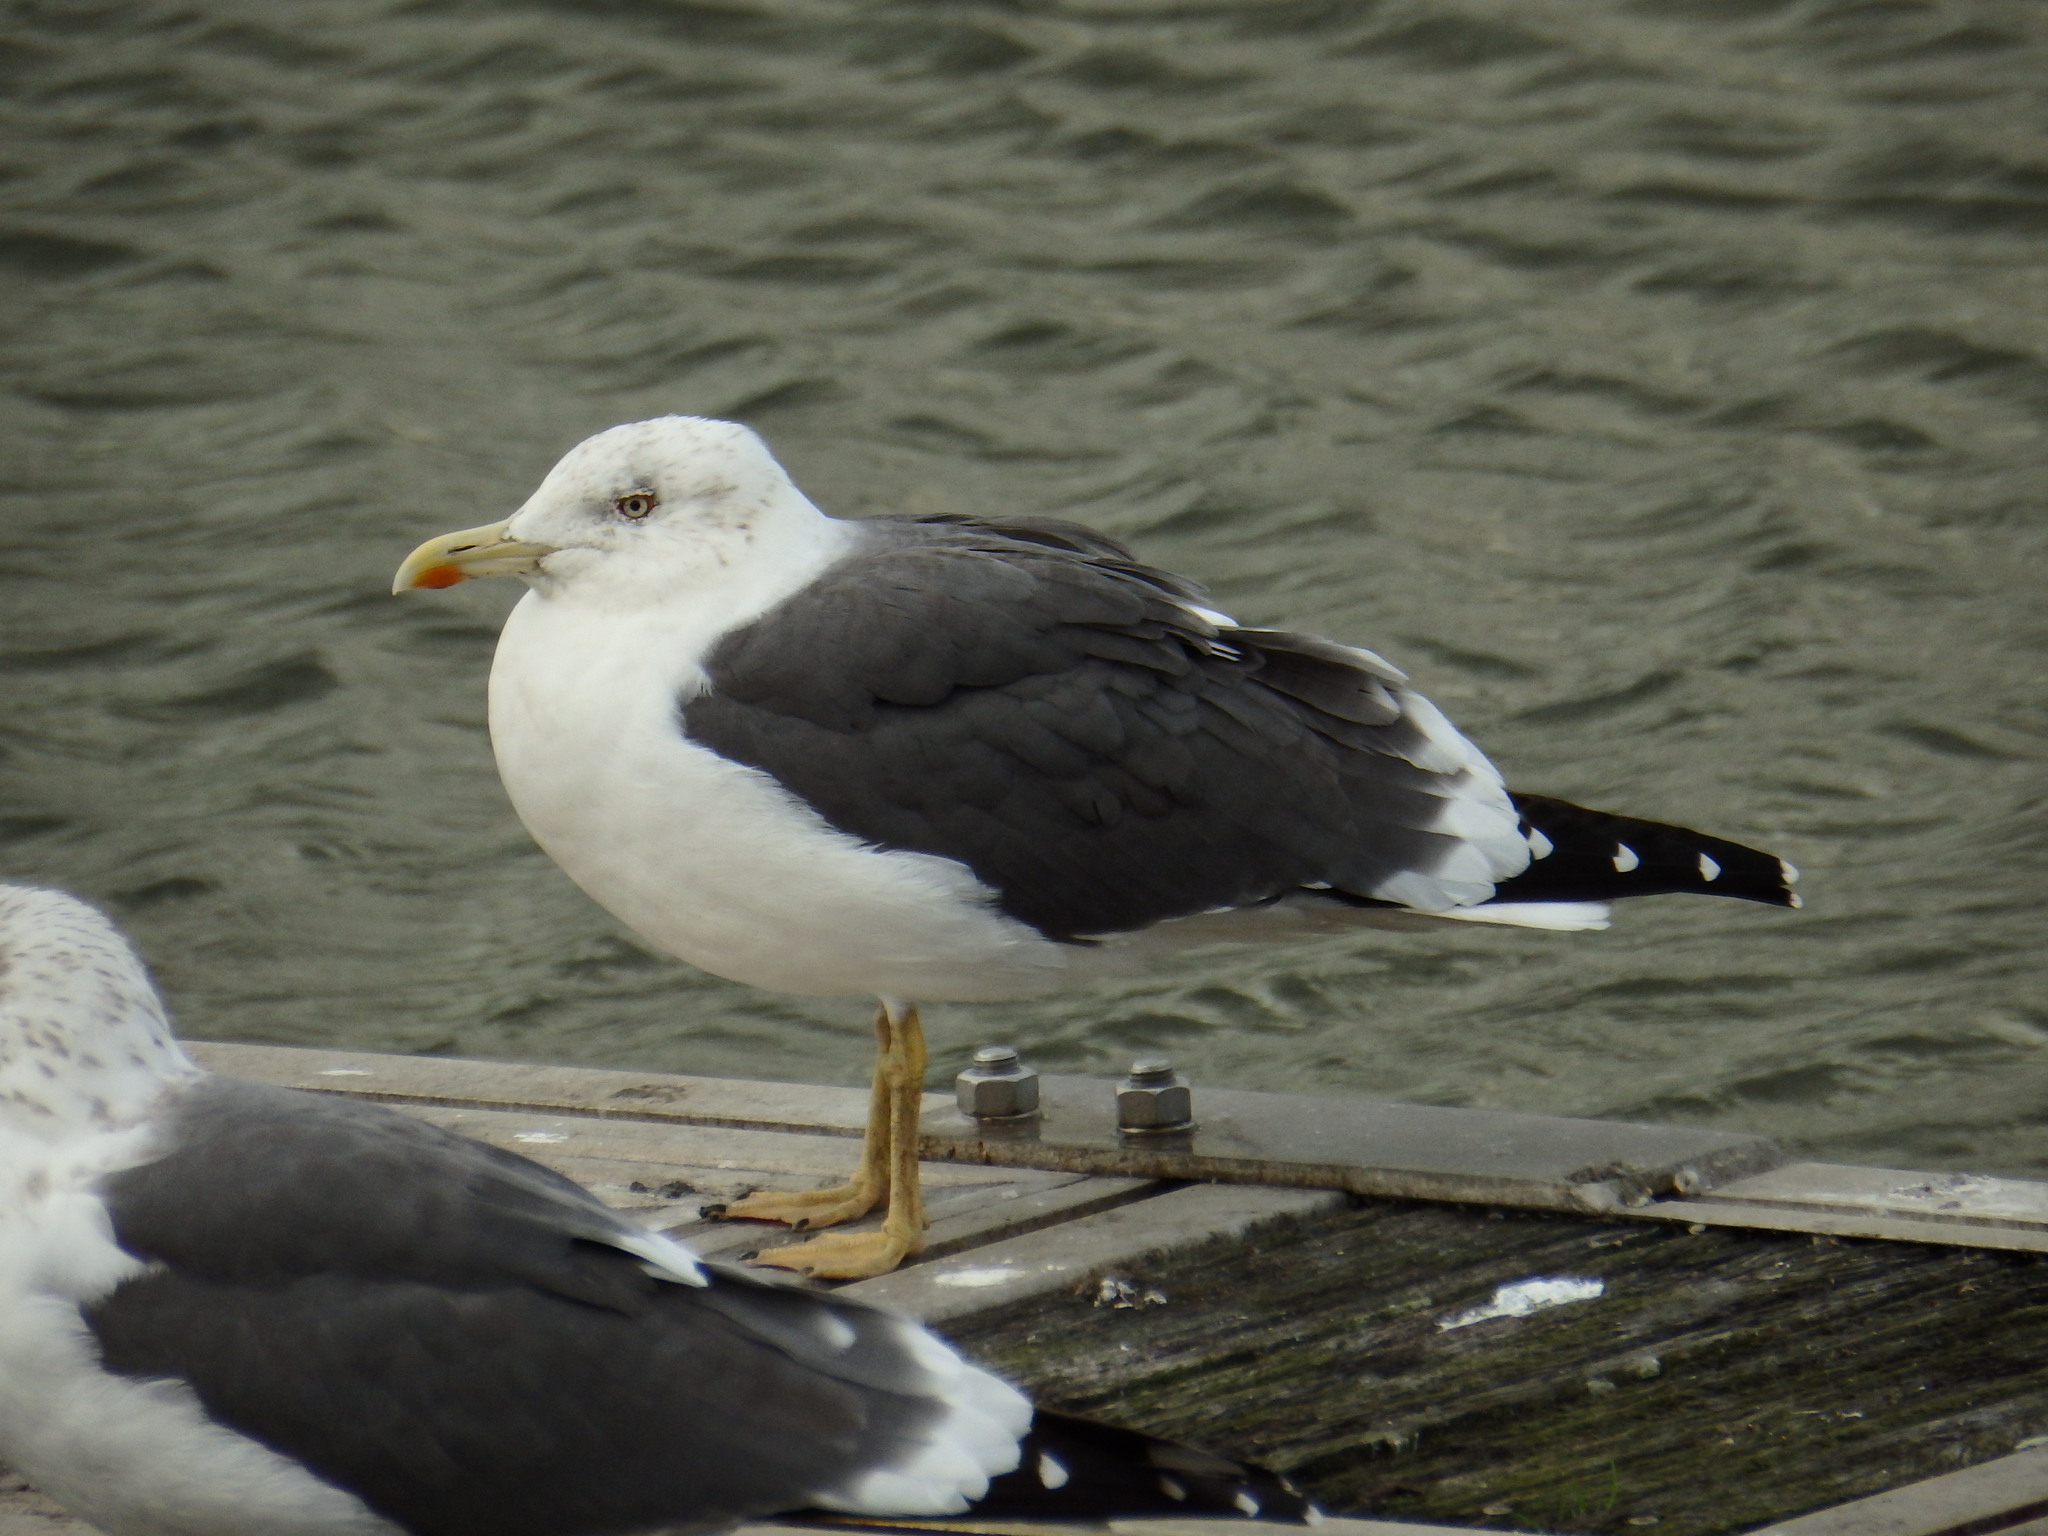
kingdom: Animalia
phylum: Chordata
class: Aves
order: Charadriiformes
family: Laridae
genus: Larus
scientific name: Larus fuscus
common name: Lesser black-backed gull
